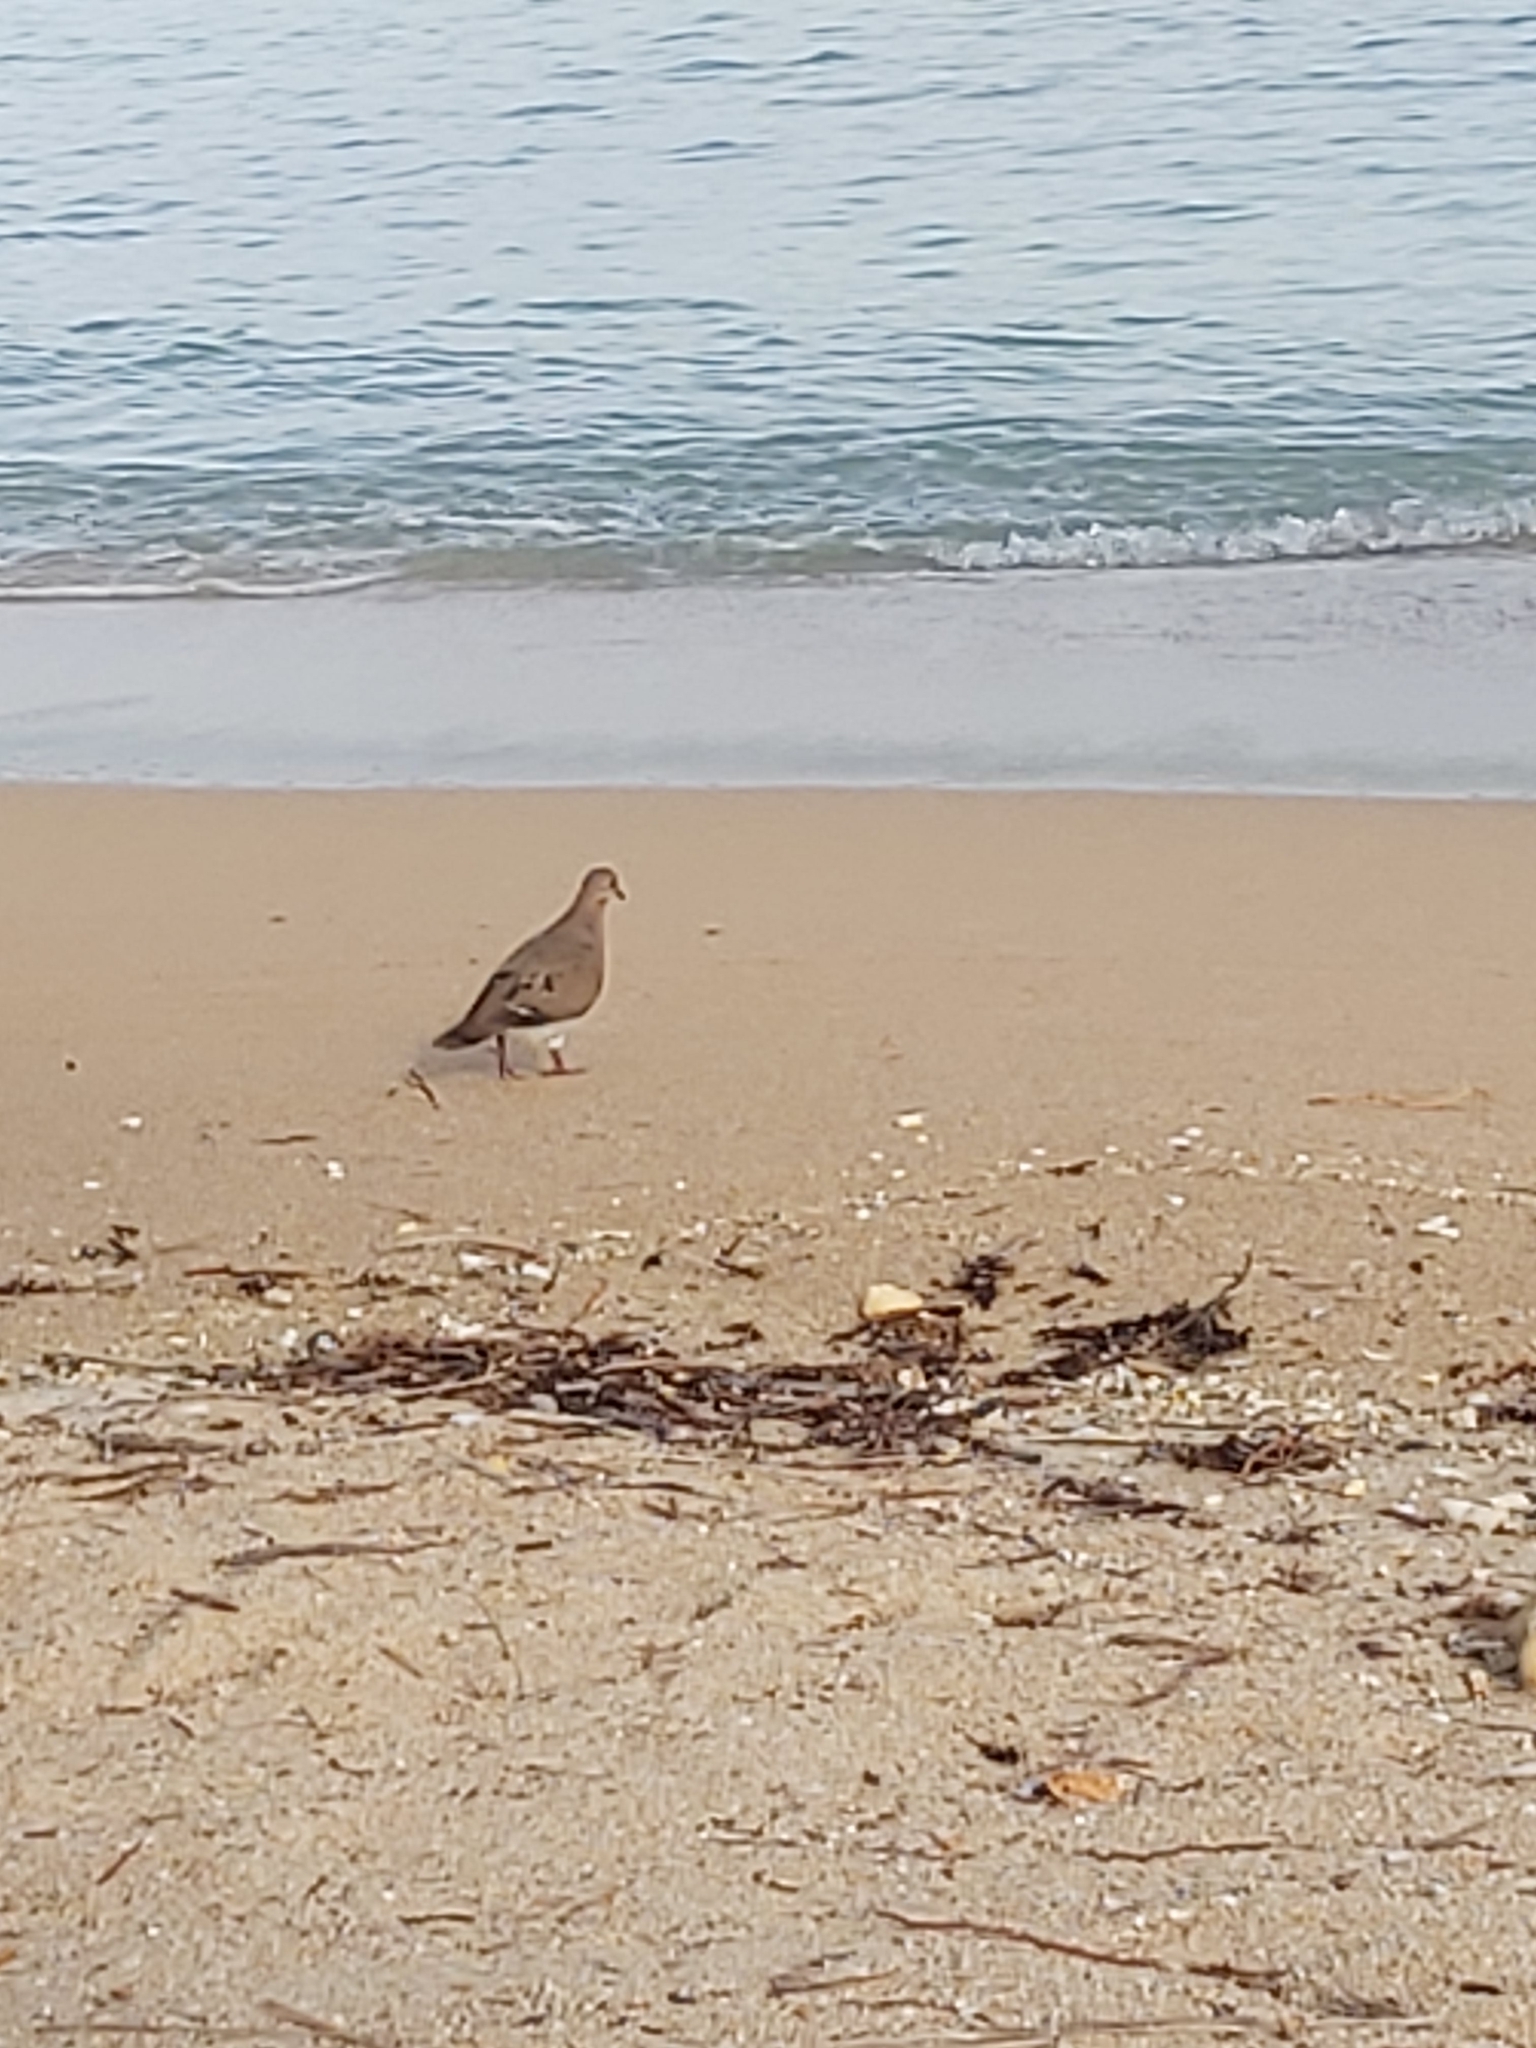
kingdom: Animalia
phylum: Chordata
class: Aves
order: Columbiformes
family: Columbidae
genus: Zenaida
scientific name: Zenaida aurita
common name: Zenaida dove
